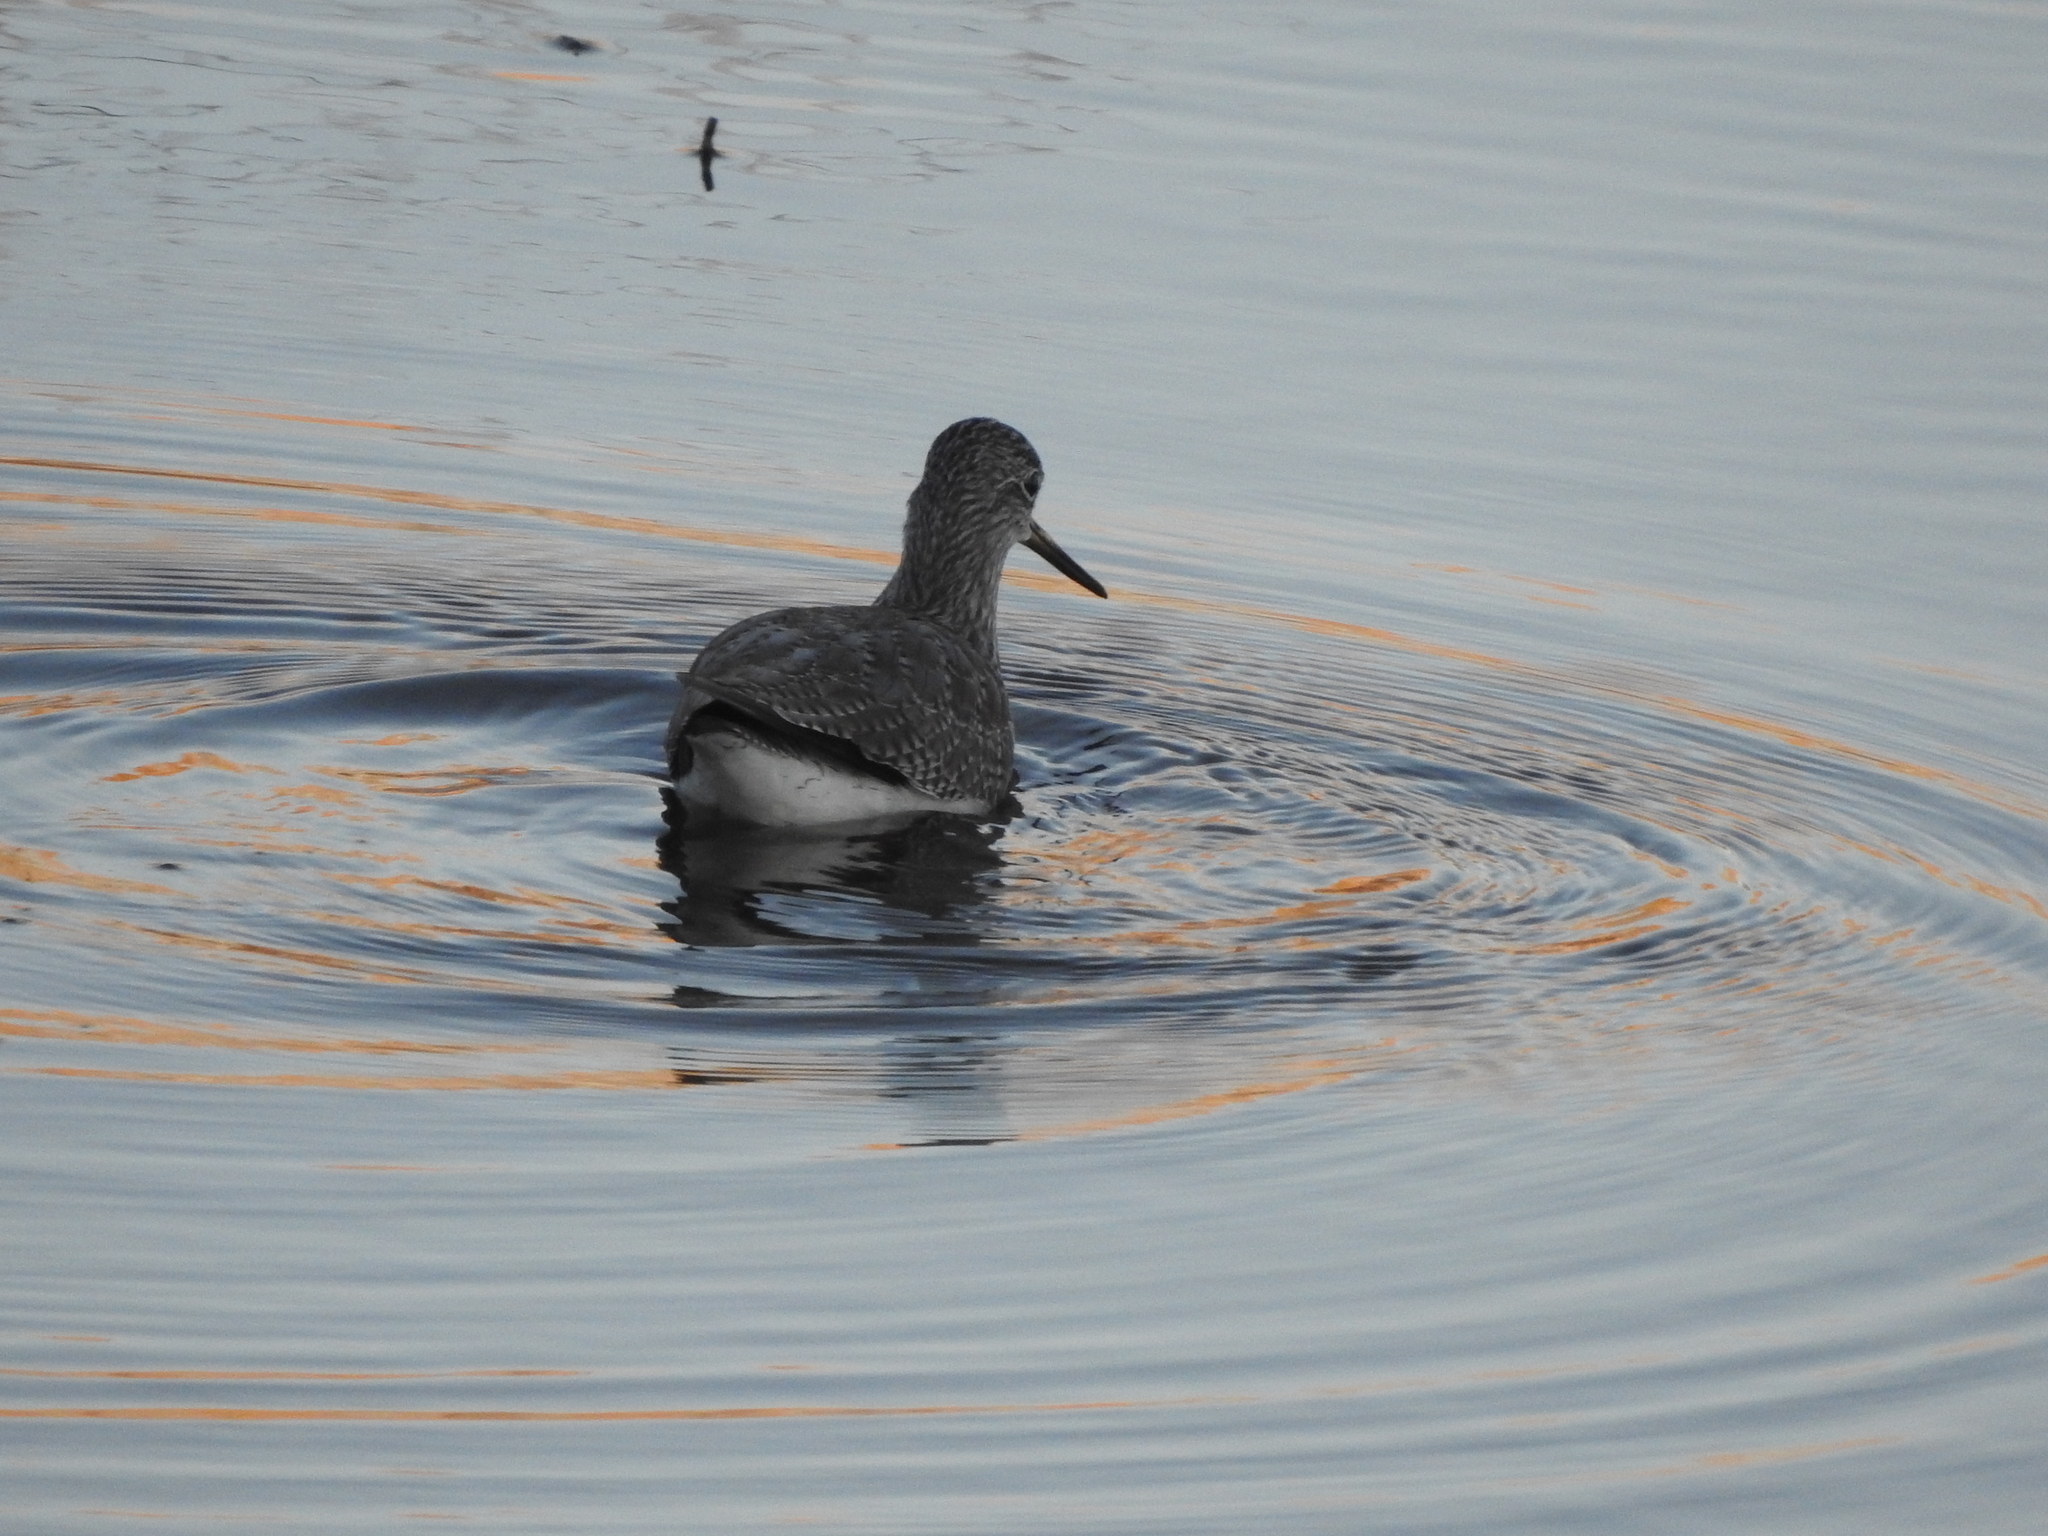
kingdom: Animalia
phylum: Chordata
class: Aves
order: Charadriiformes
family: Scolopacidae
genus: Tringa
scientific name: Tringa melanoleuca
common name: Greater yellowlegs
